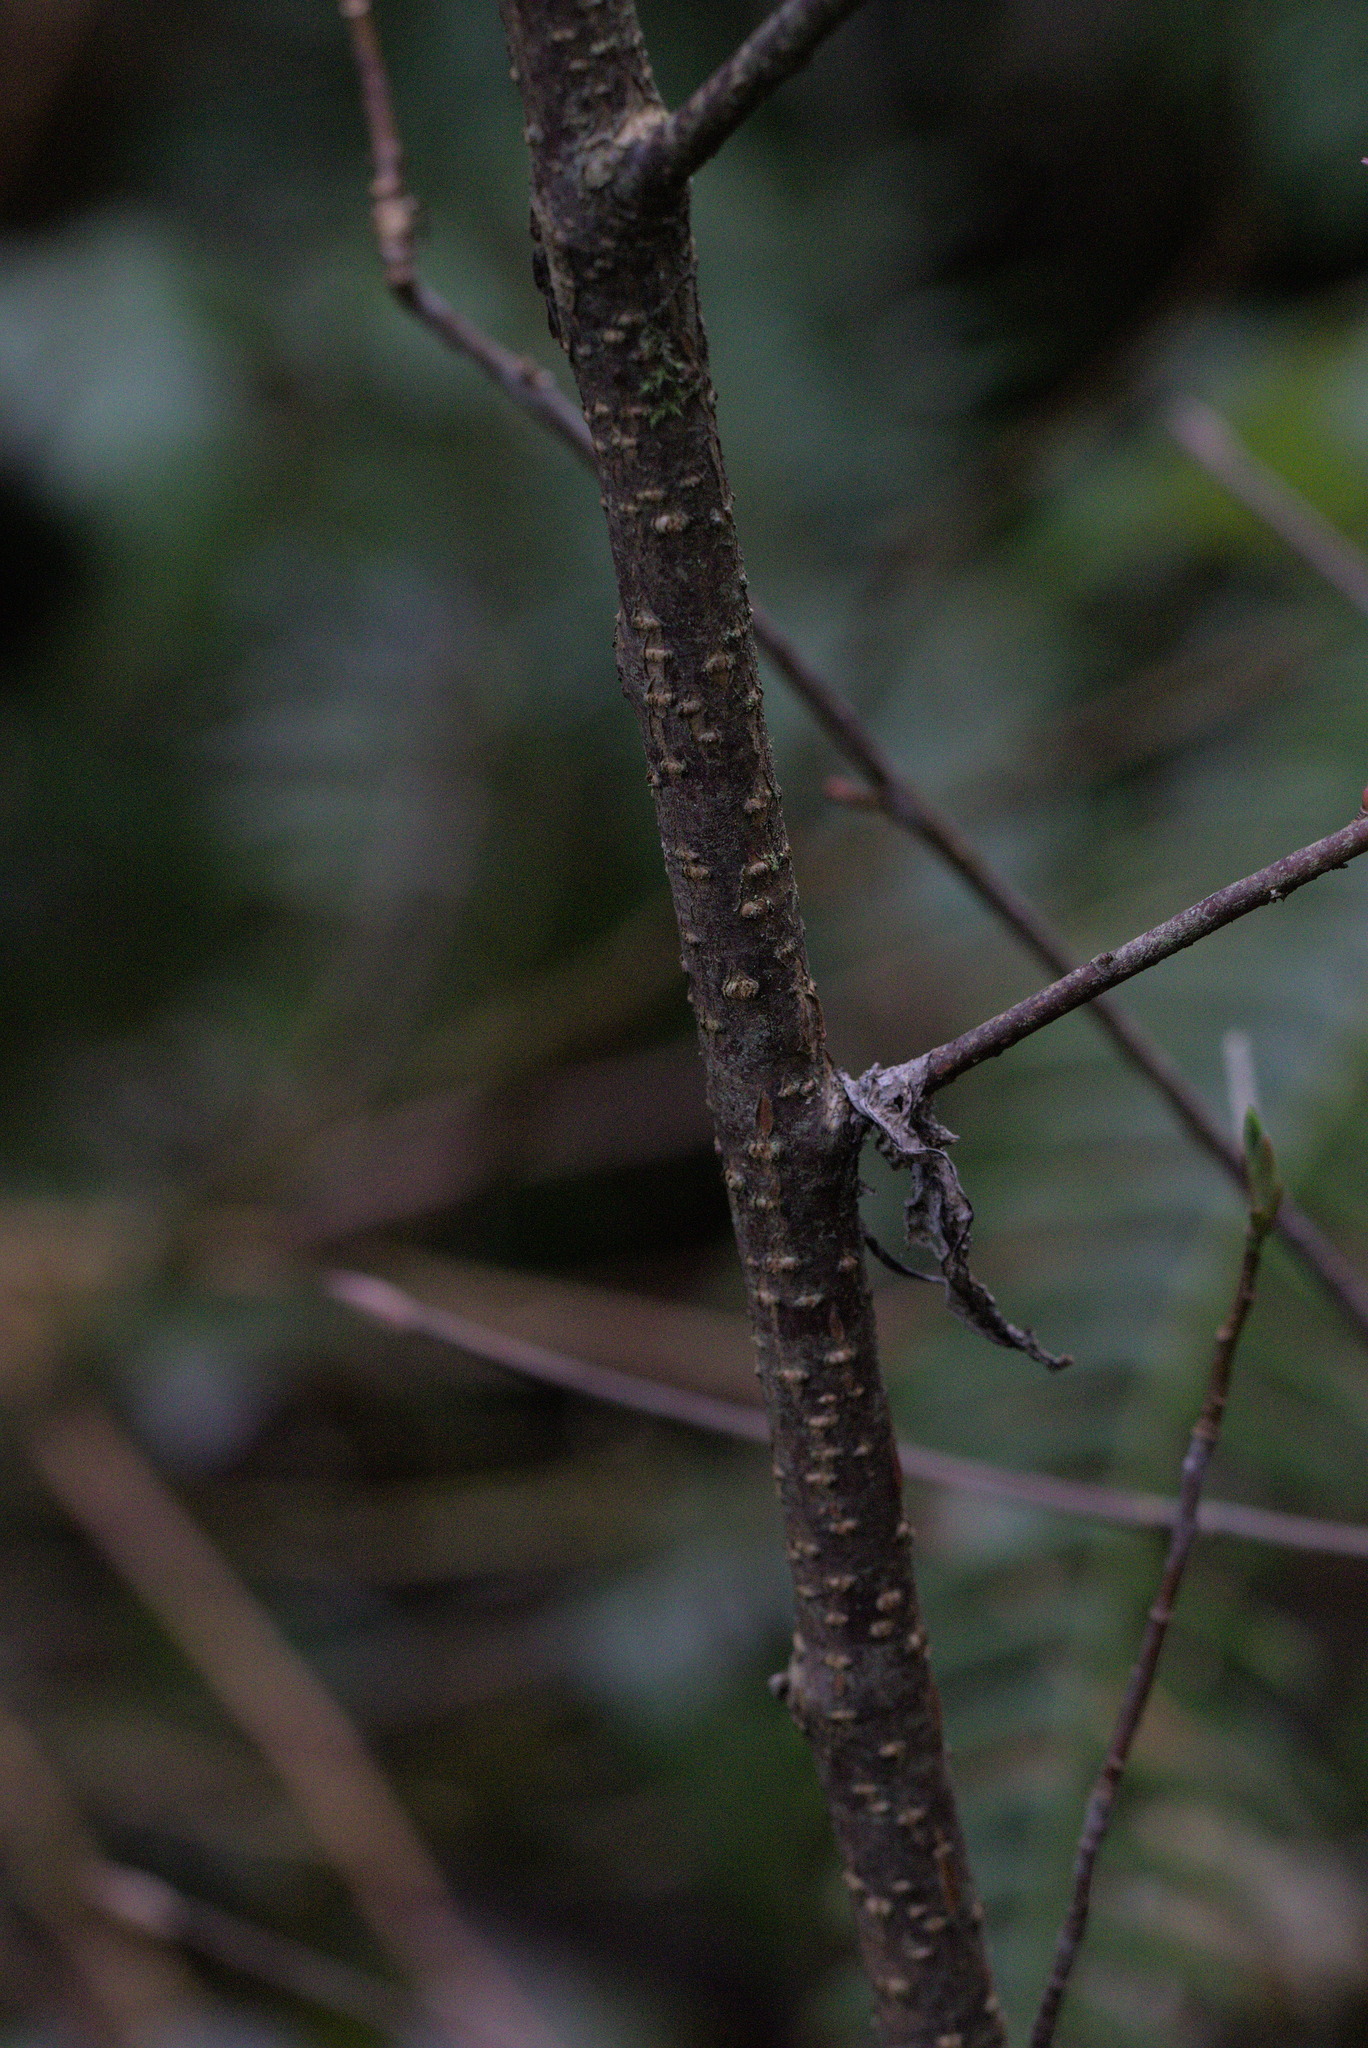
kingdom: Plantae
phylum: Tracheophyta
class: Magnoliopsida
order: Rosales
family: Rosaceae
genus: Oemleria
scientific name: Oemleria cerasiformis
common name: Osoberry
